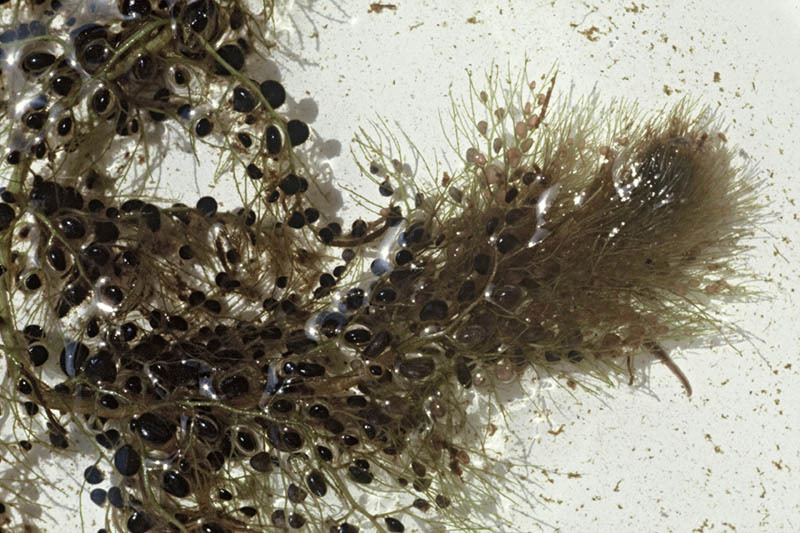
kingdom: Plantae
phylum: Tracheophyta
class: Magnoliopsida
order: Lamiales
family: Lentibulariaceae
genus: Utricularia
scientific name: Utricularia australis
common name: Bladderwort
